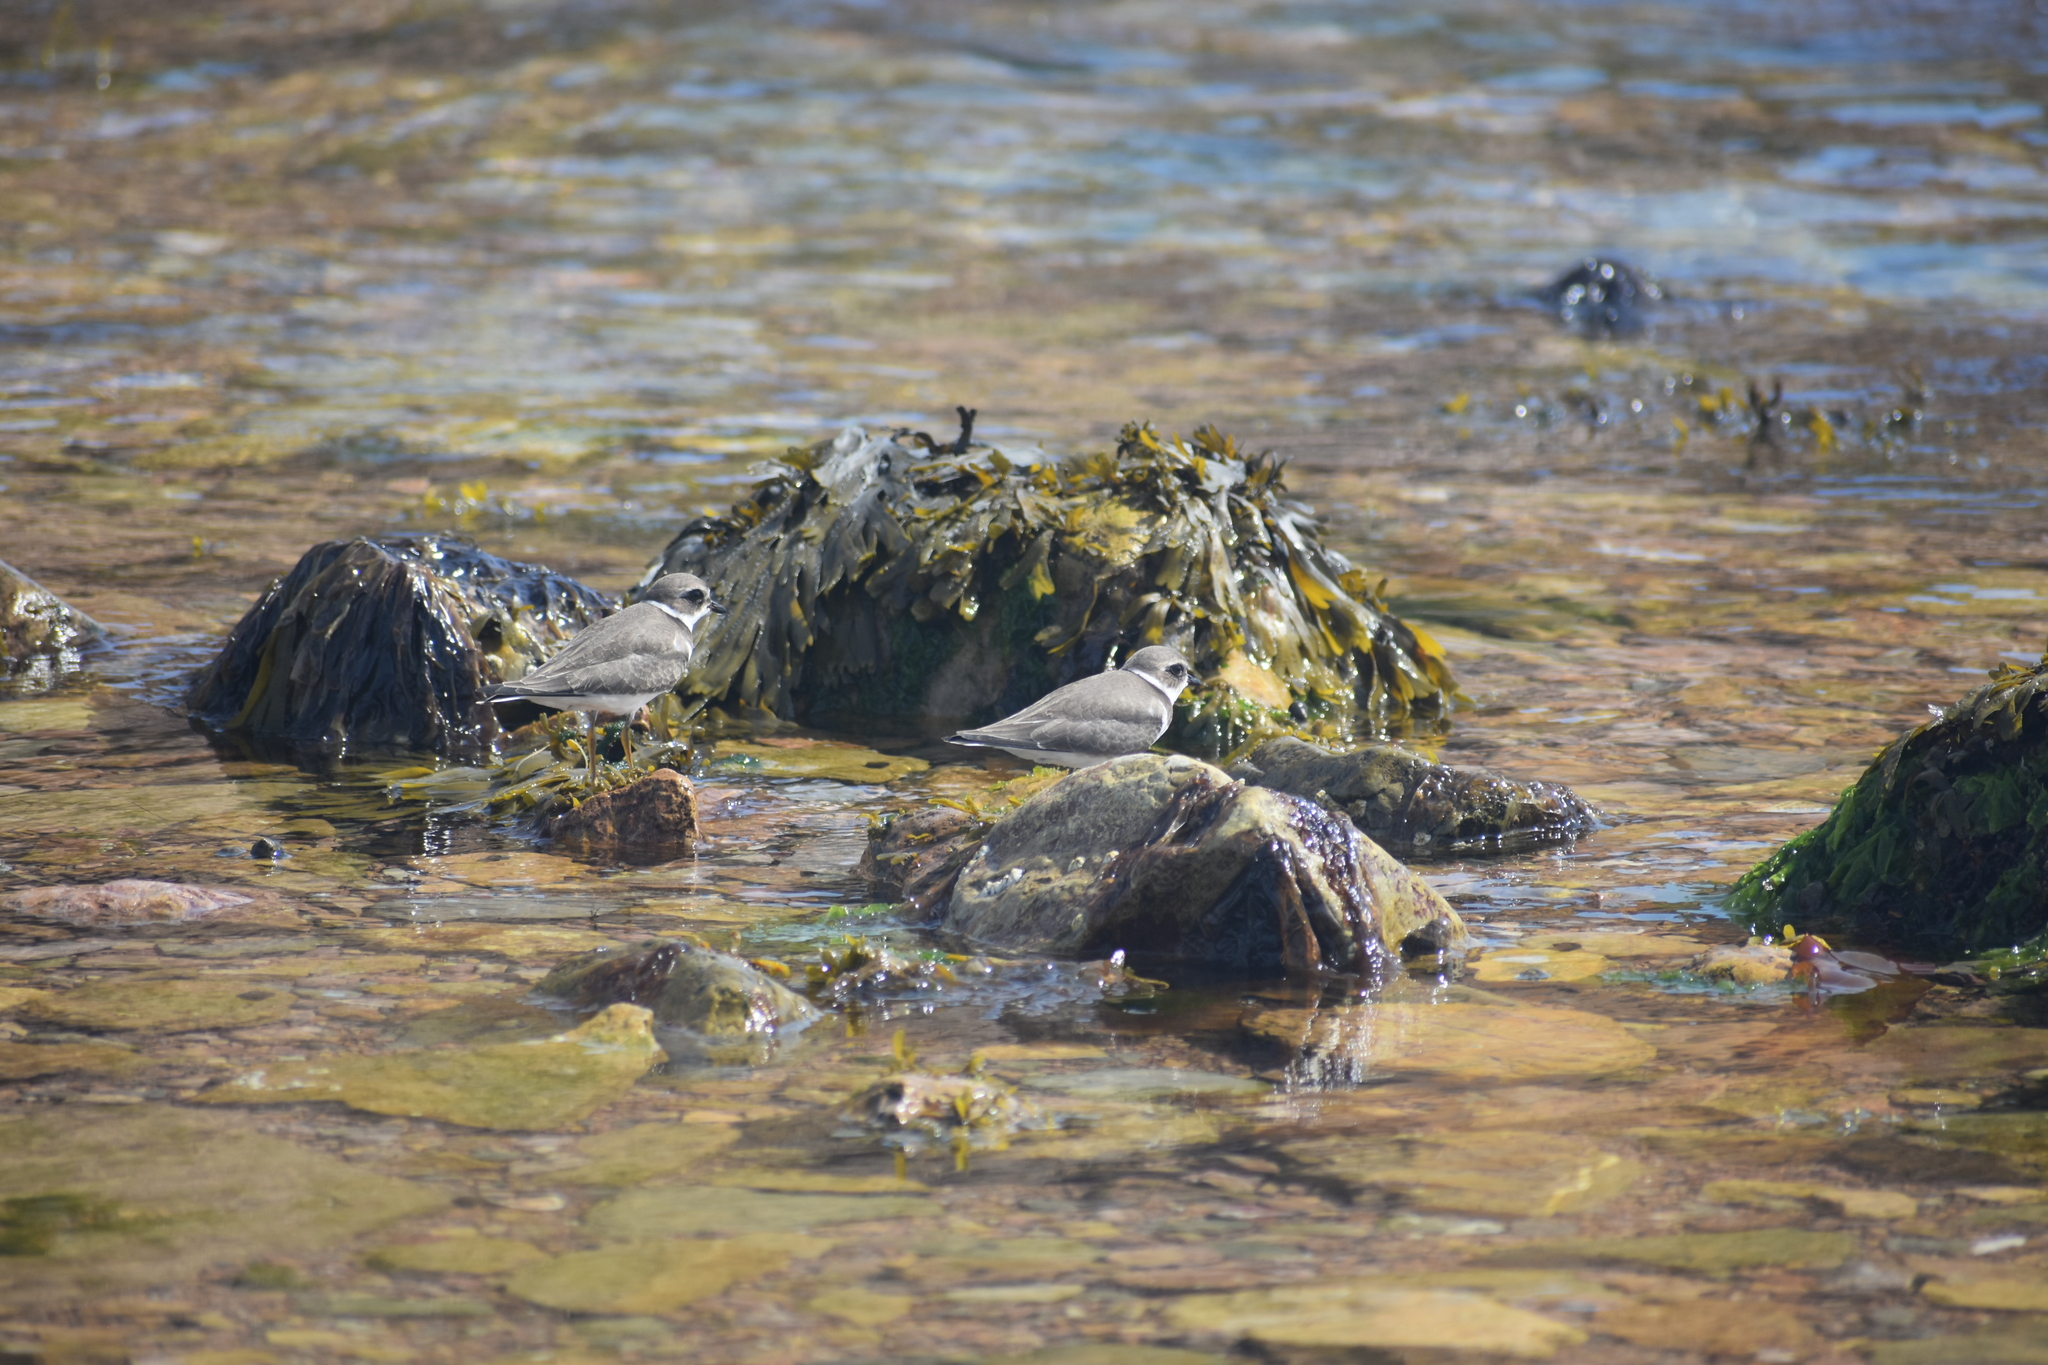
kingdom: Animalia
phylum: Chordata
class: Aves
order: Charadriiformes
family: Charadriidae
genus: Charadrius
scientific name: Charadrius semipalmatus
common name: Semipalmated plover
